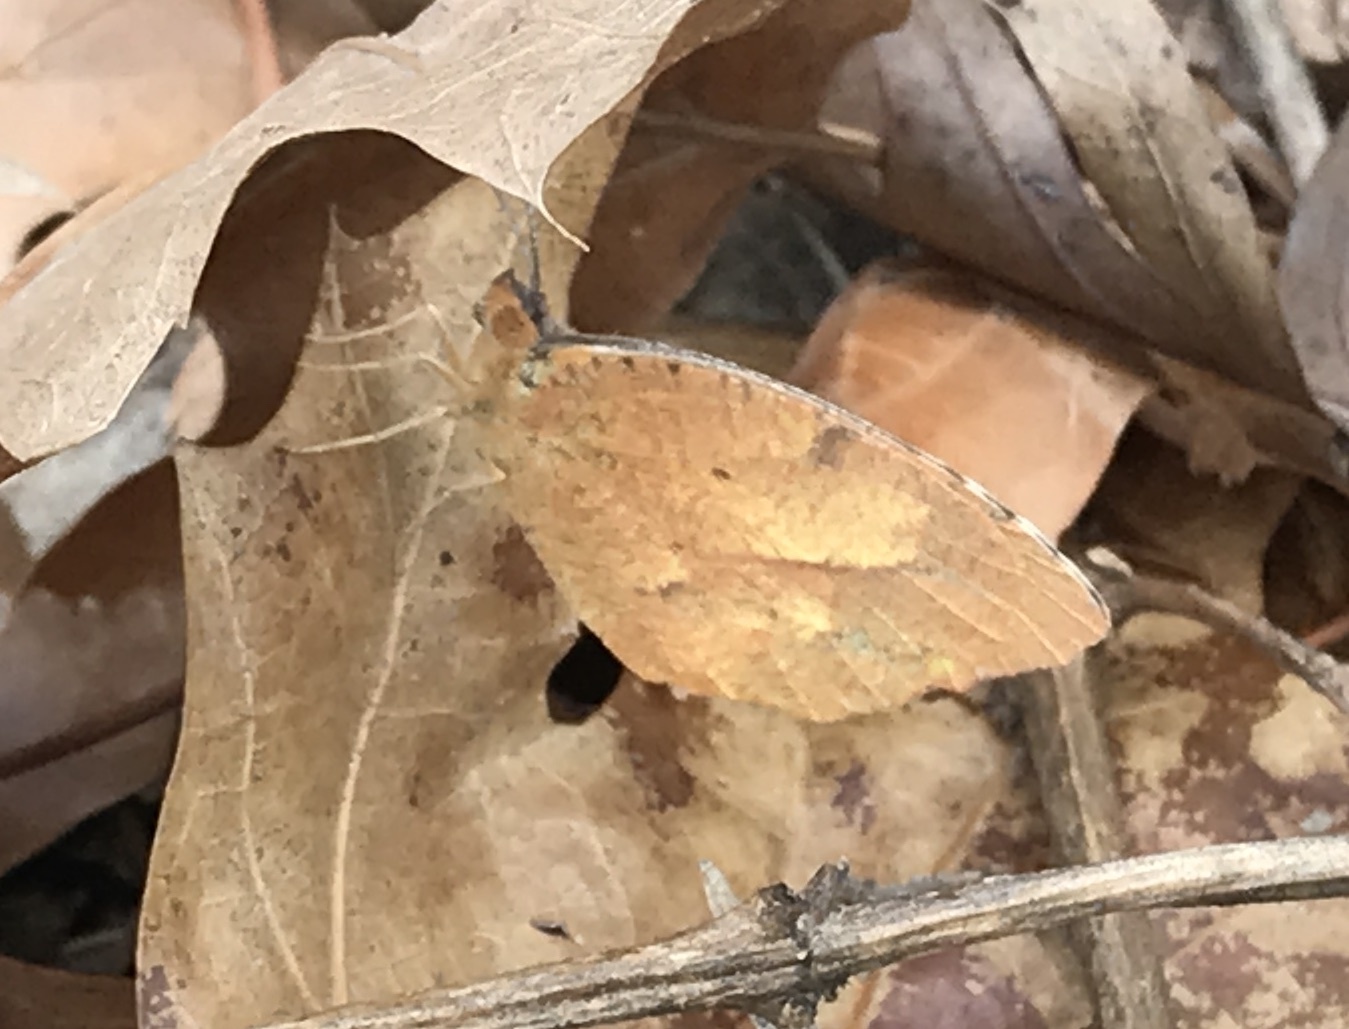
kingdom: Animalia
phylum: Arthropoda
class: Insecta
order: Lepidoptera
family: Pieridae
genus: Abaeis
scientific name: Abaeis nicippe
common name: Sleepy orange
